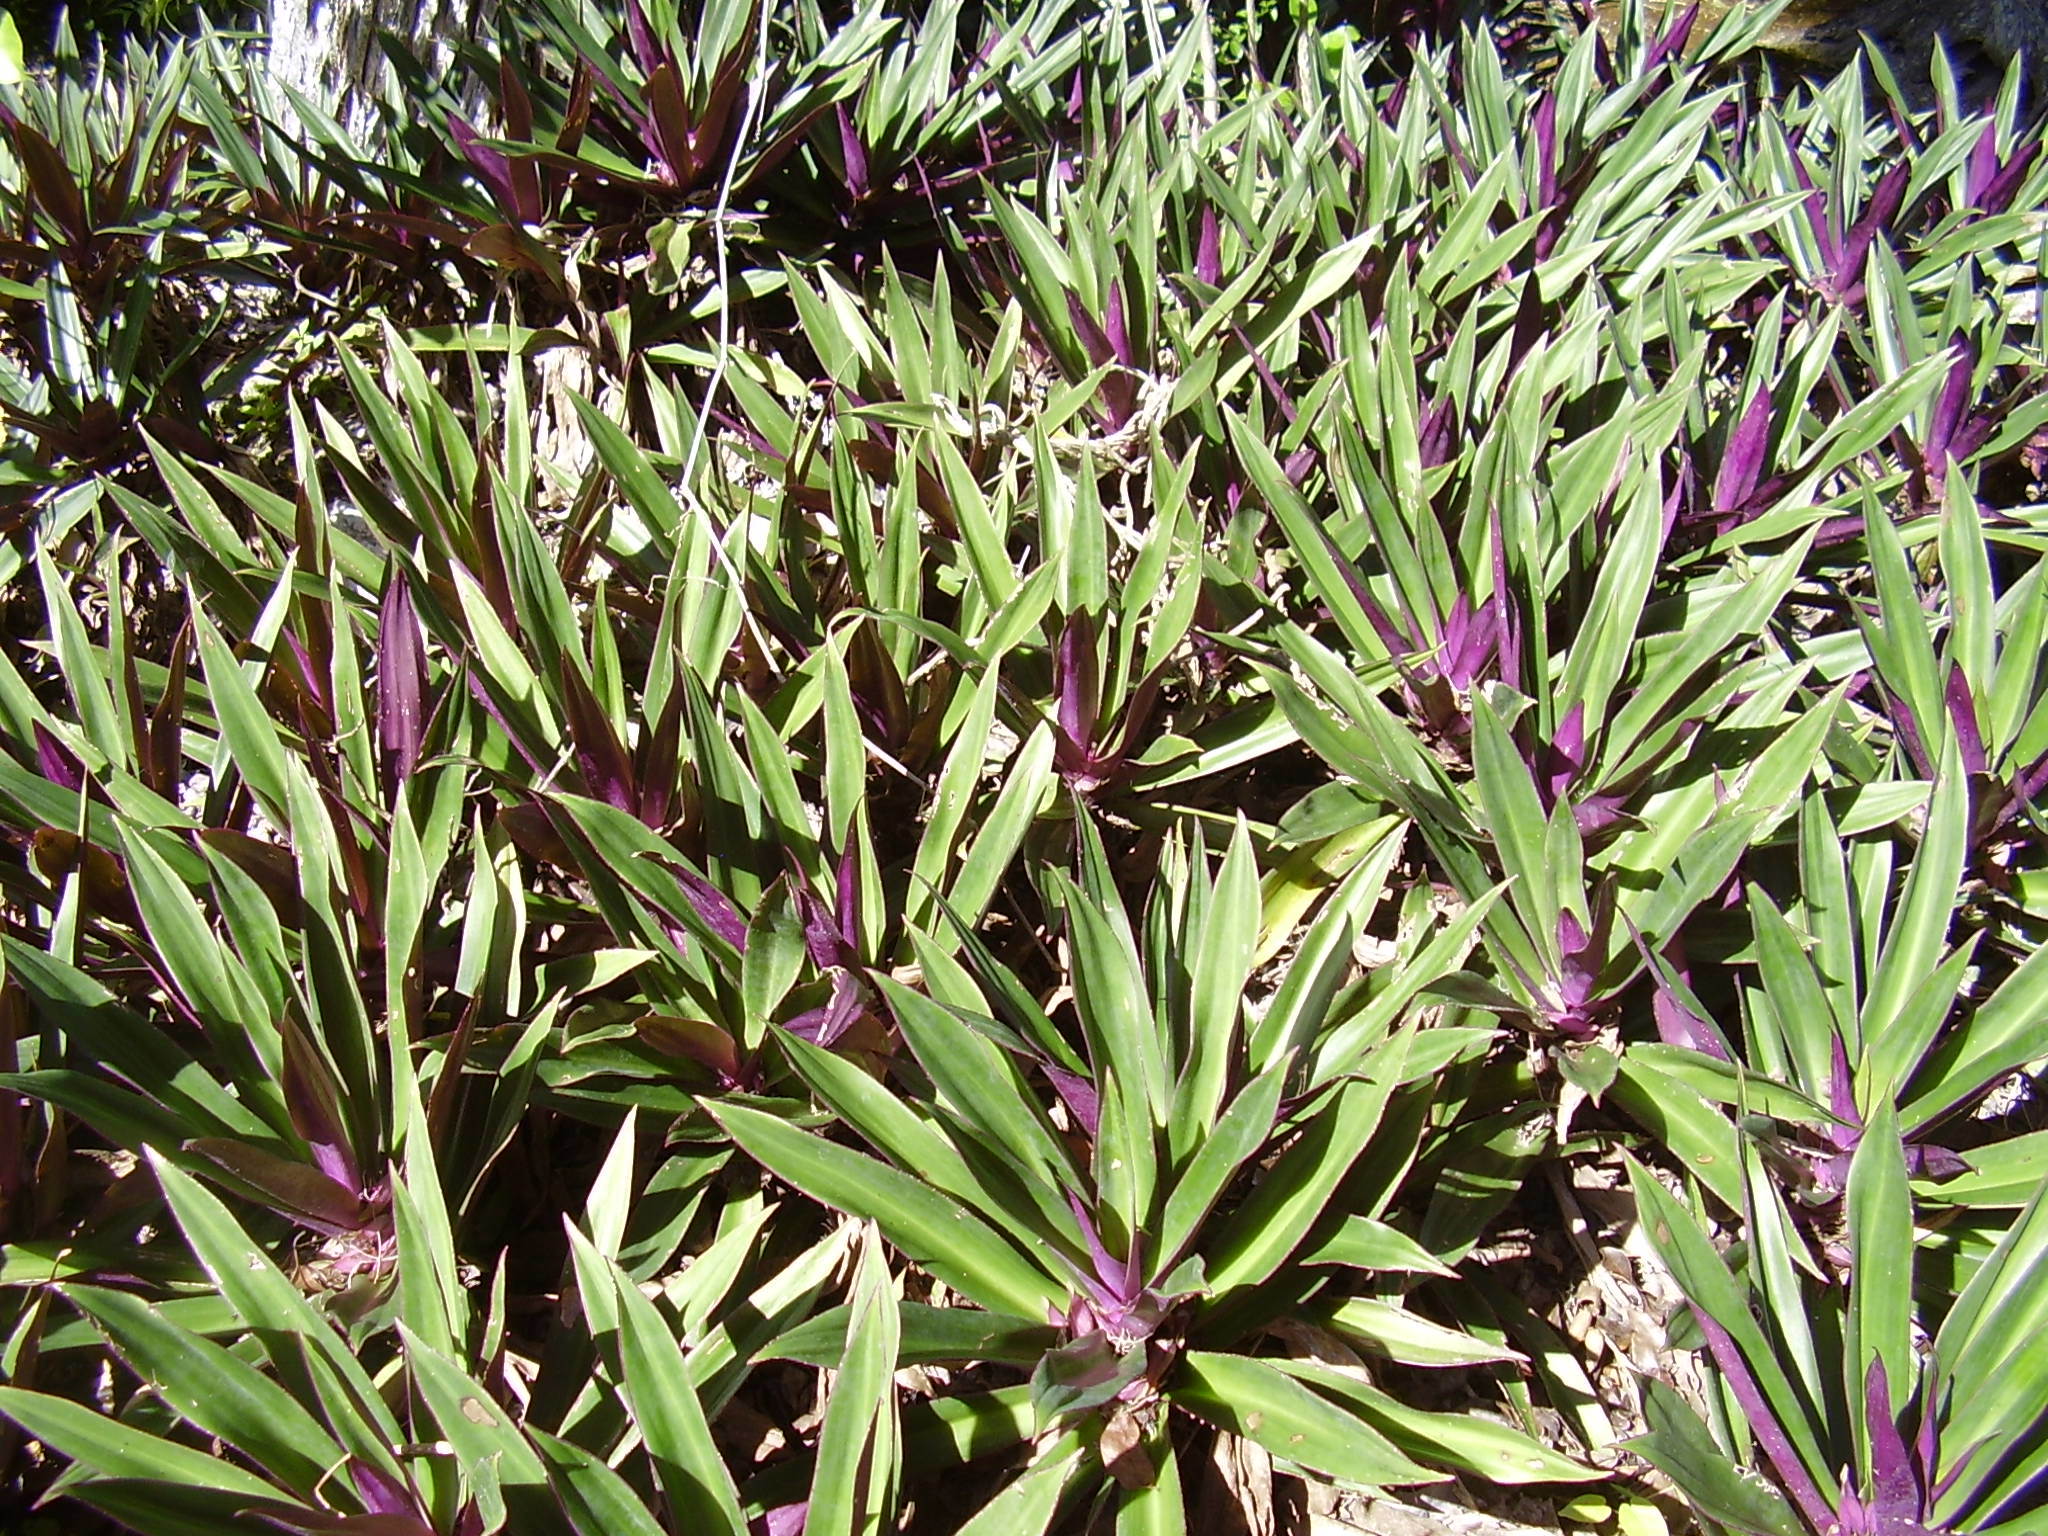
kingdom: Plantae
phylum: Tracheophyta
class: Liliopsida
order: Commelinales
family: Commelinaceae
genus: Tradescantia
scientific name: Tradescantia spathacea
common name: Boatlily
